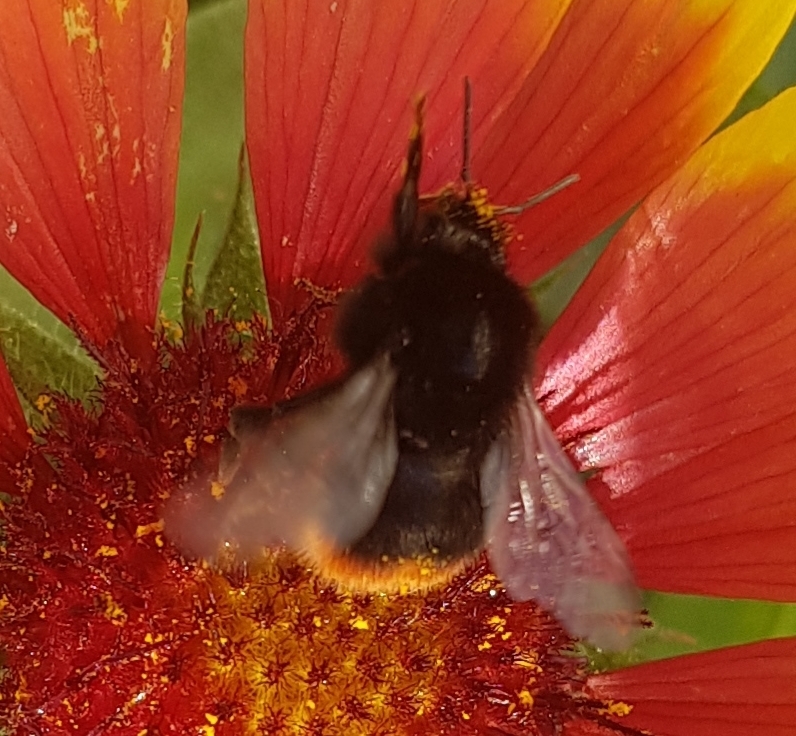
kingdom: Animalia
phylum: Arthropoda
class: Insecta
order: Hymenoptera
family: Apidae
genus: Bombus
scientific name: Bombus lapidarius
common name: Large red-tailed humble-bee
